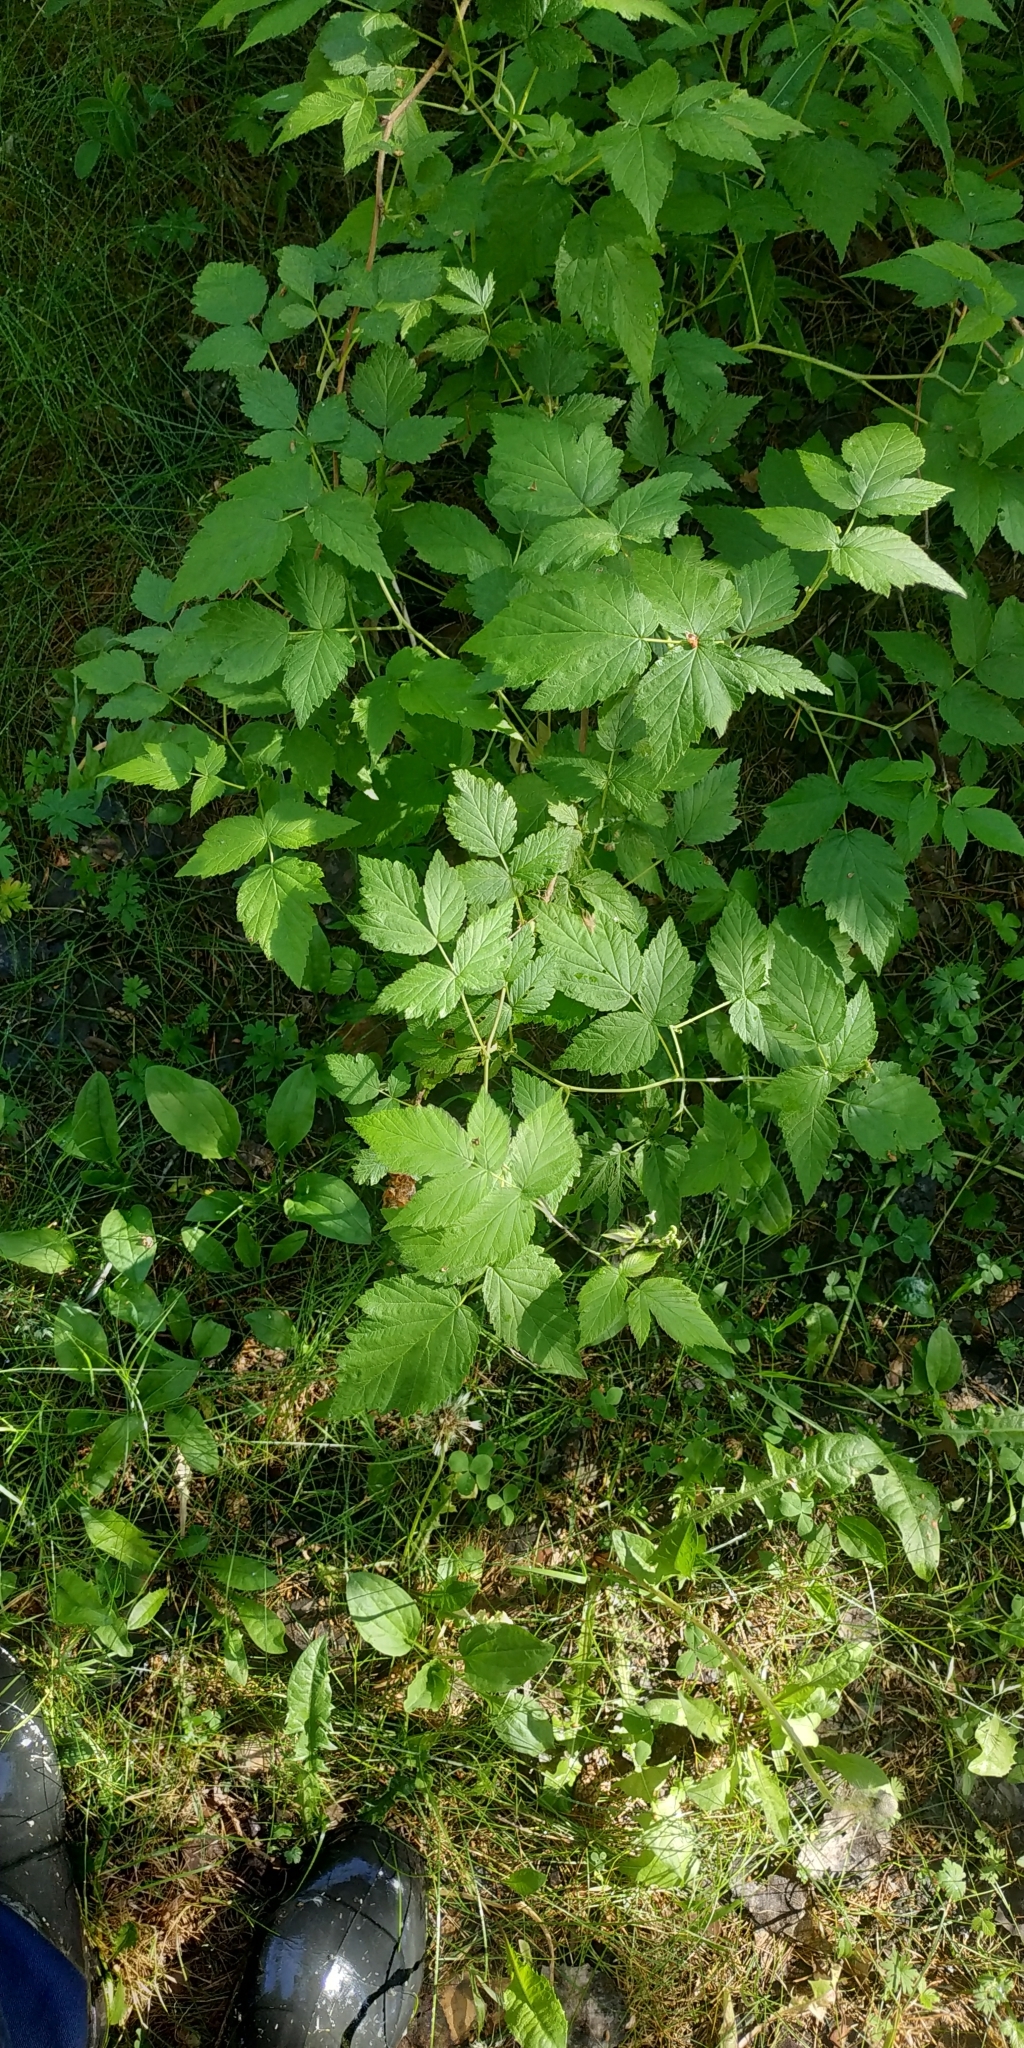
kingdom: Plantae
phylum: Tracheophyta
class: Magnoliopsida
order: Rosales
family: Rosaceae
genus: Rubus
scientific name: Rubus idaeus
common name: Raspberry
